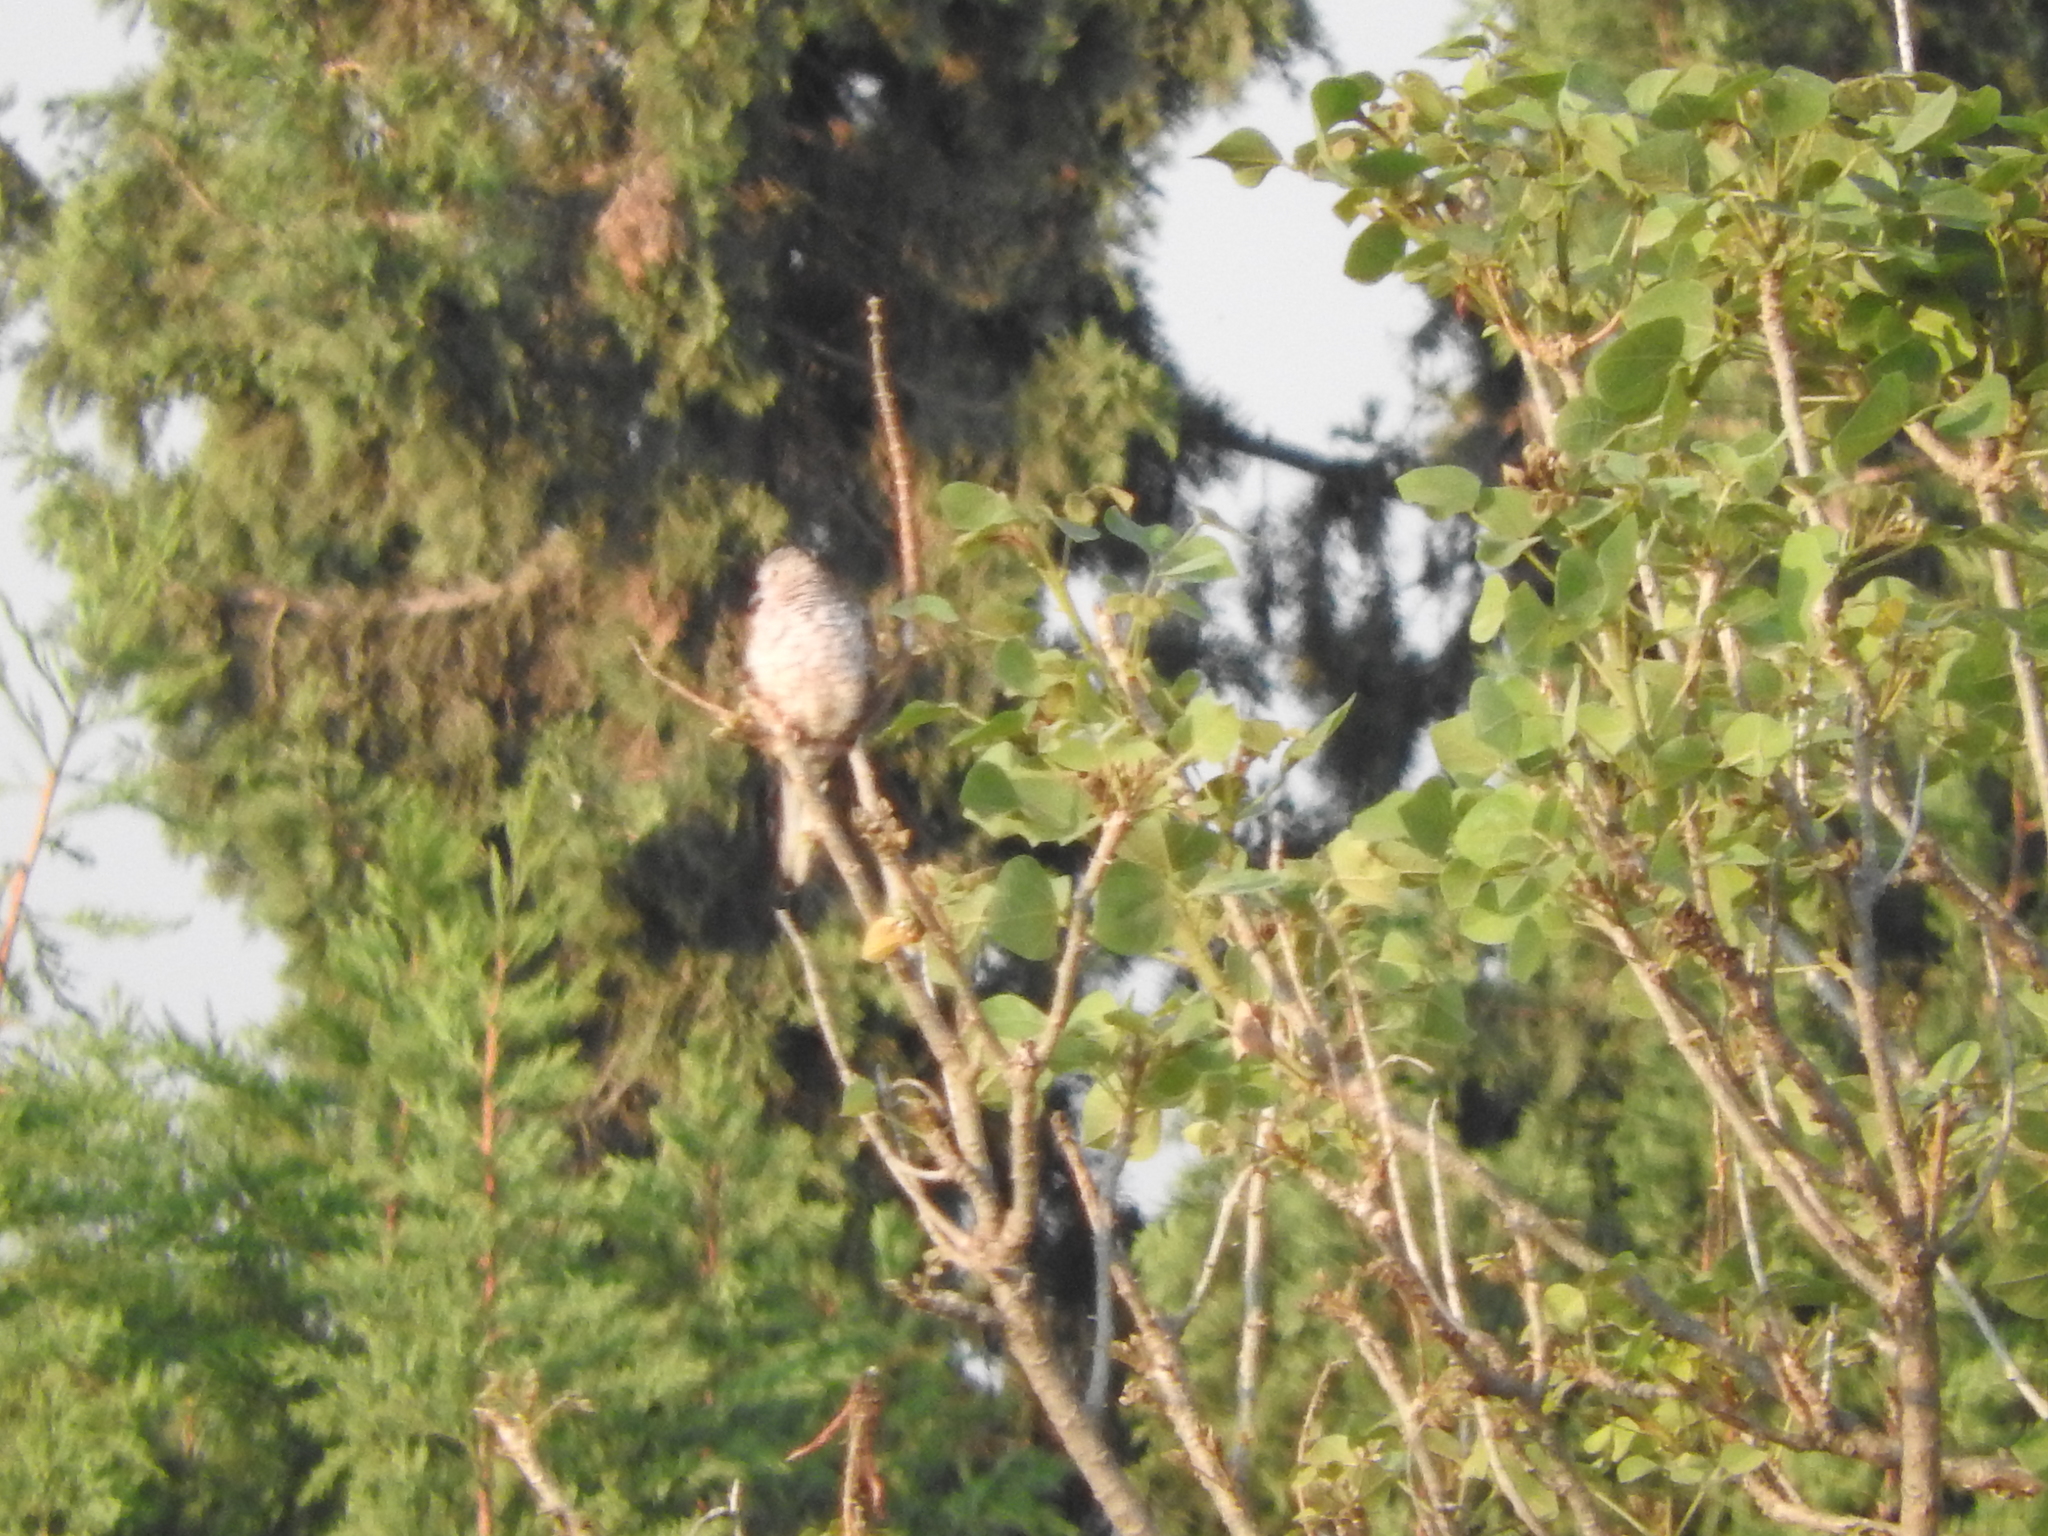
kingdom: Animalia
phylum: Chordata
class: Aves
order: Columbiformes
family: Columbidae
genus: Columbina
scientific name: Columbina inca
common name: Inca dove
